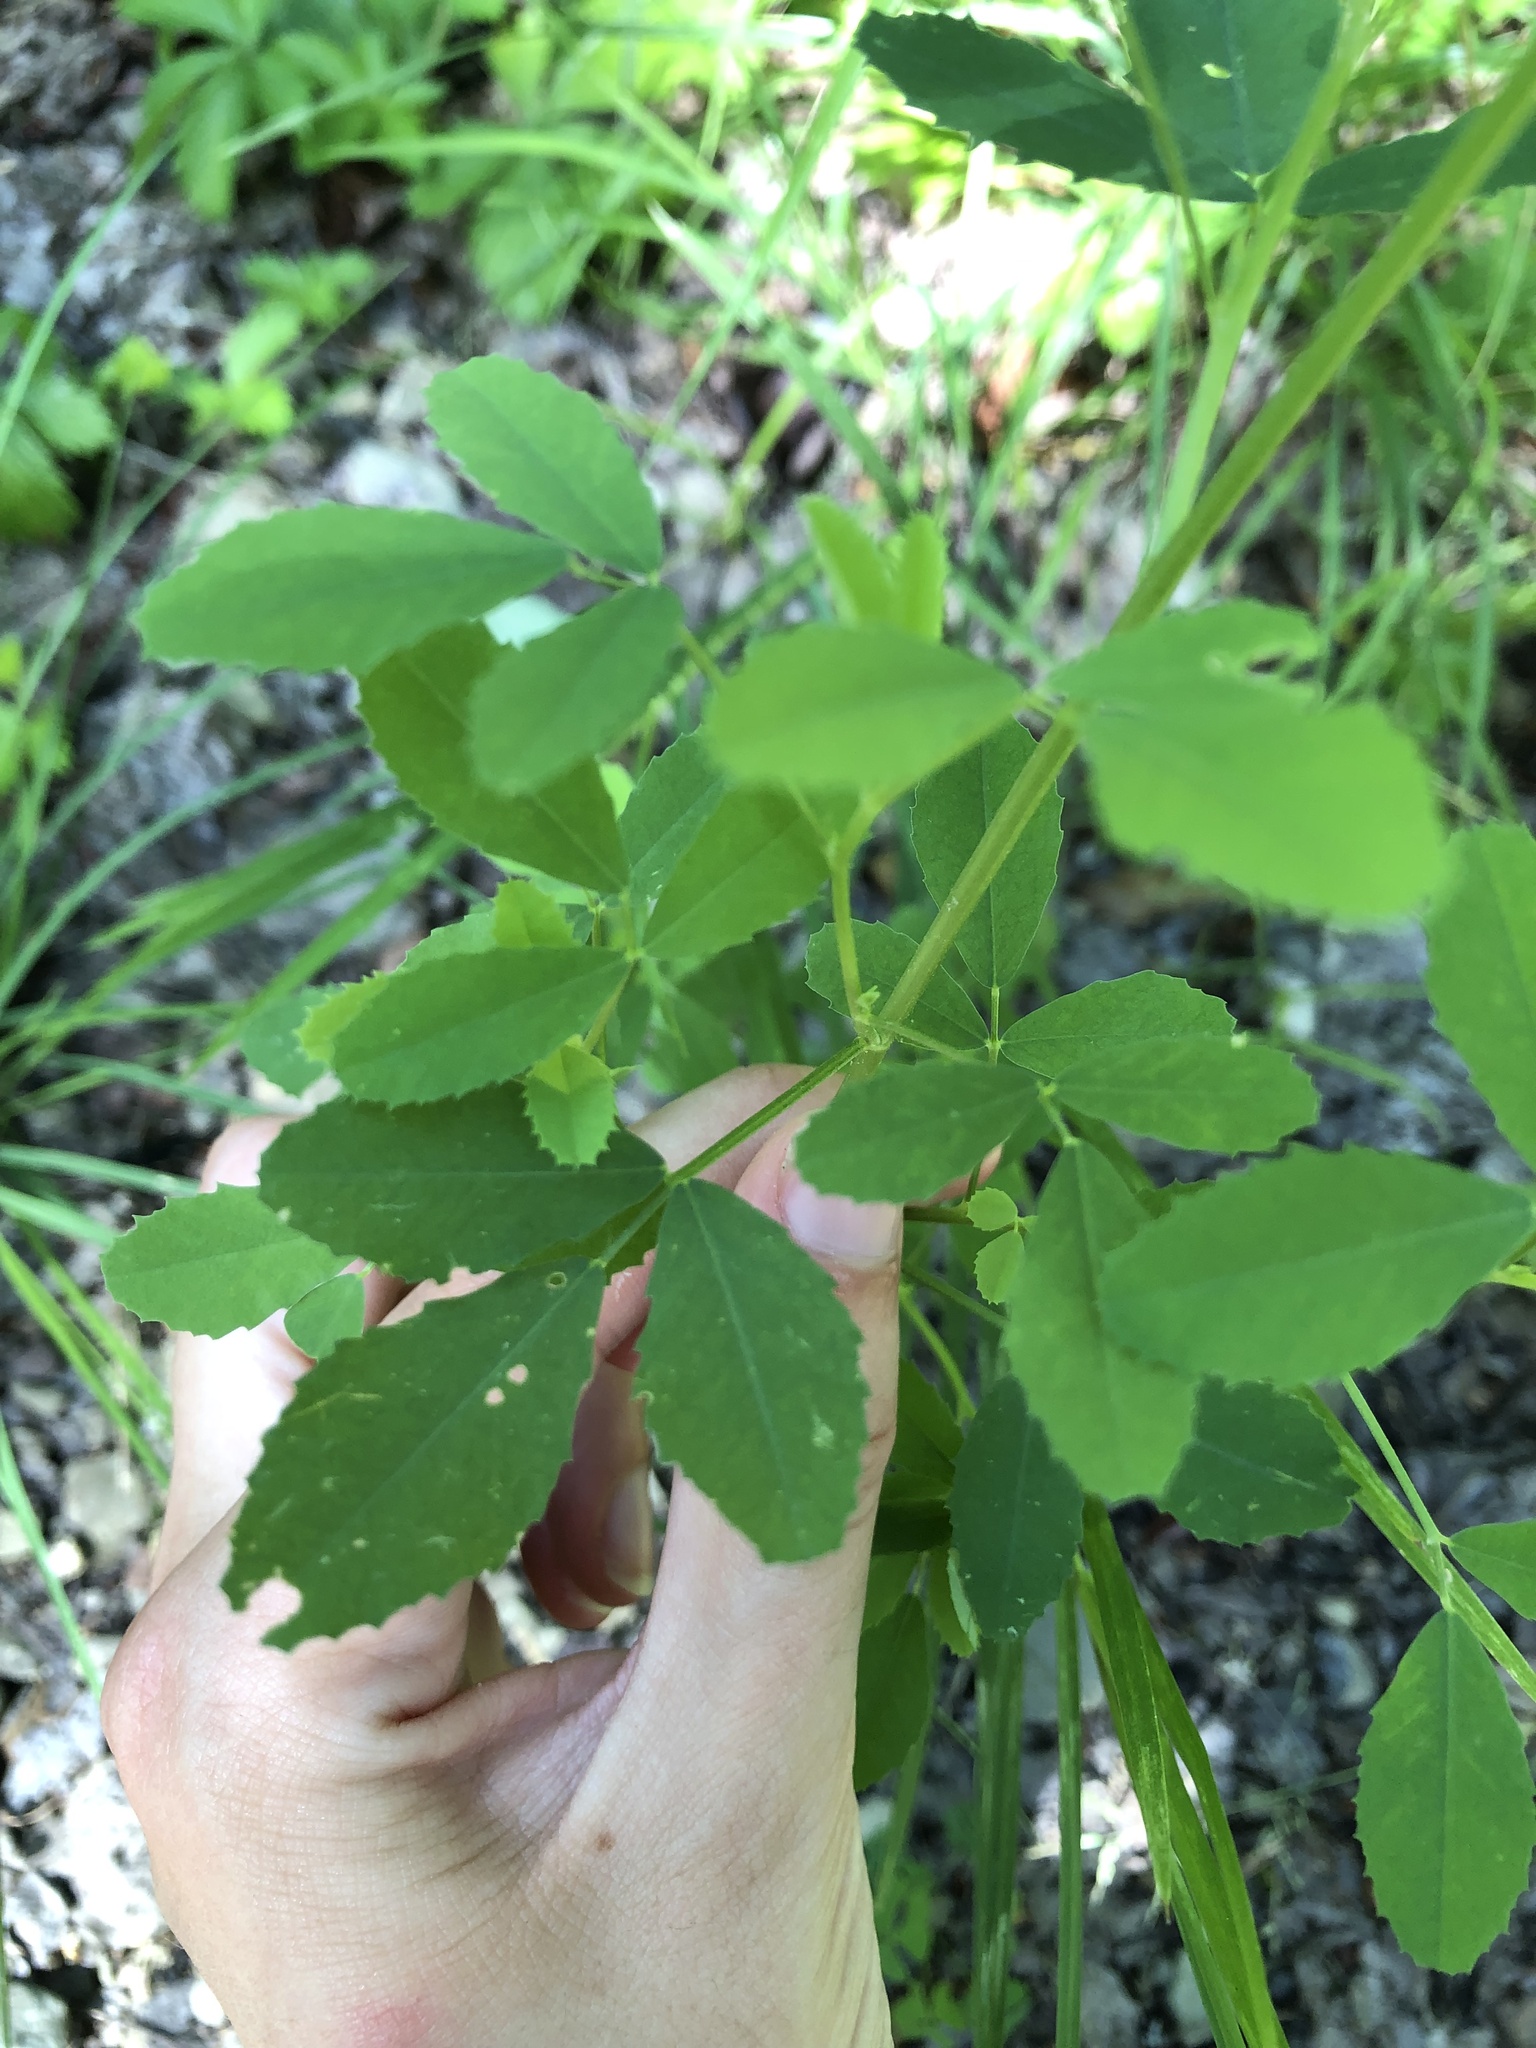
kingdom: Plantae
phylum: Tracheophyta
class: Magnoliopsida
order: Fabales
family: Fabaceae
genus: Melilotus
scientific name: Melilotus
